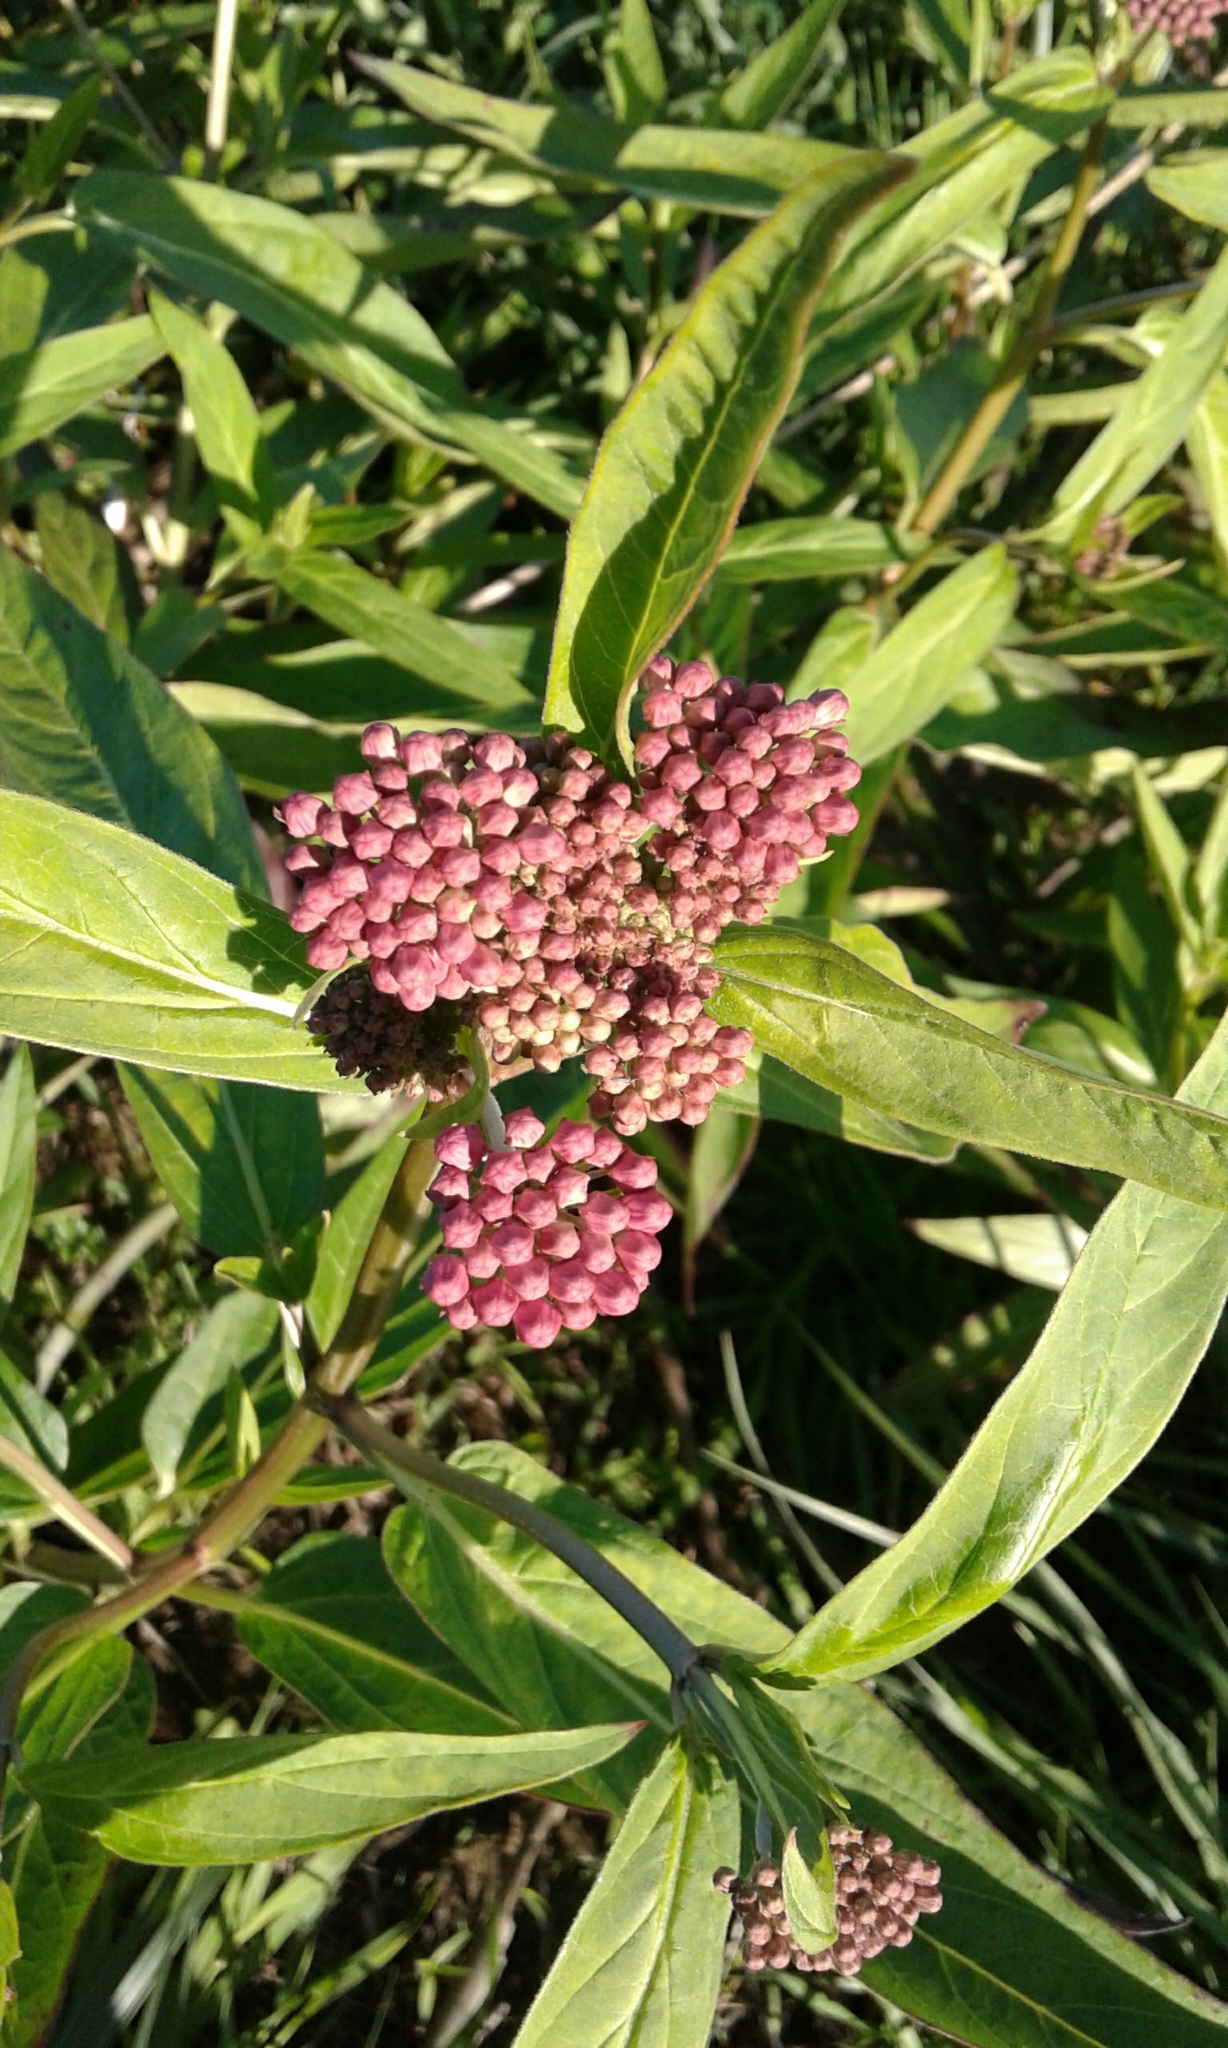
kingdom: Plantae
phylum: Tracheophyta
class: Magnoliopsida
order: Gentianales
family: Apocynaceae
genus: Asclepias
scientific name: Asclepias incarnata
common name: Swamp milkweed
